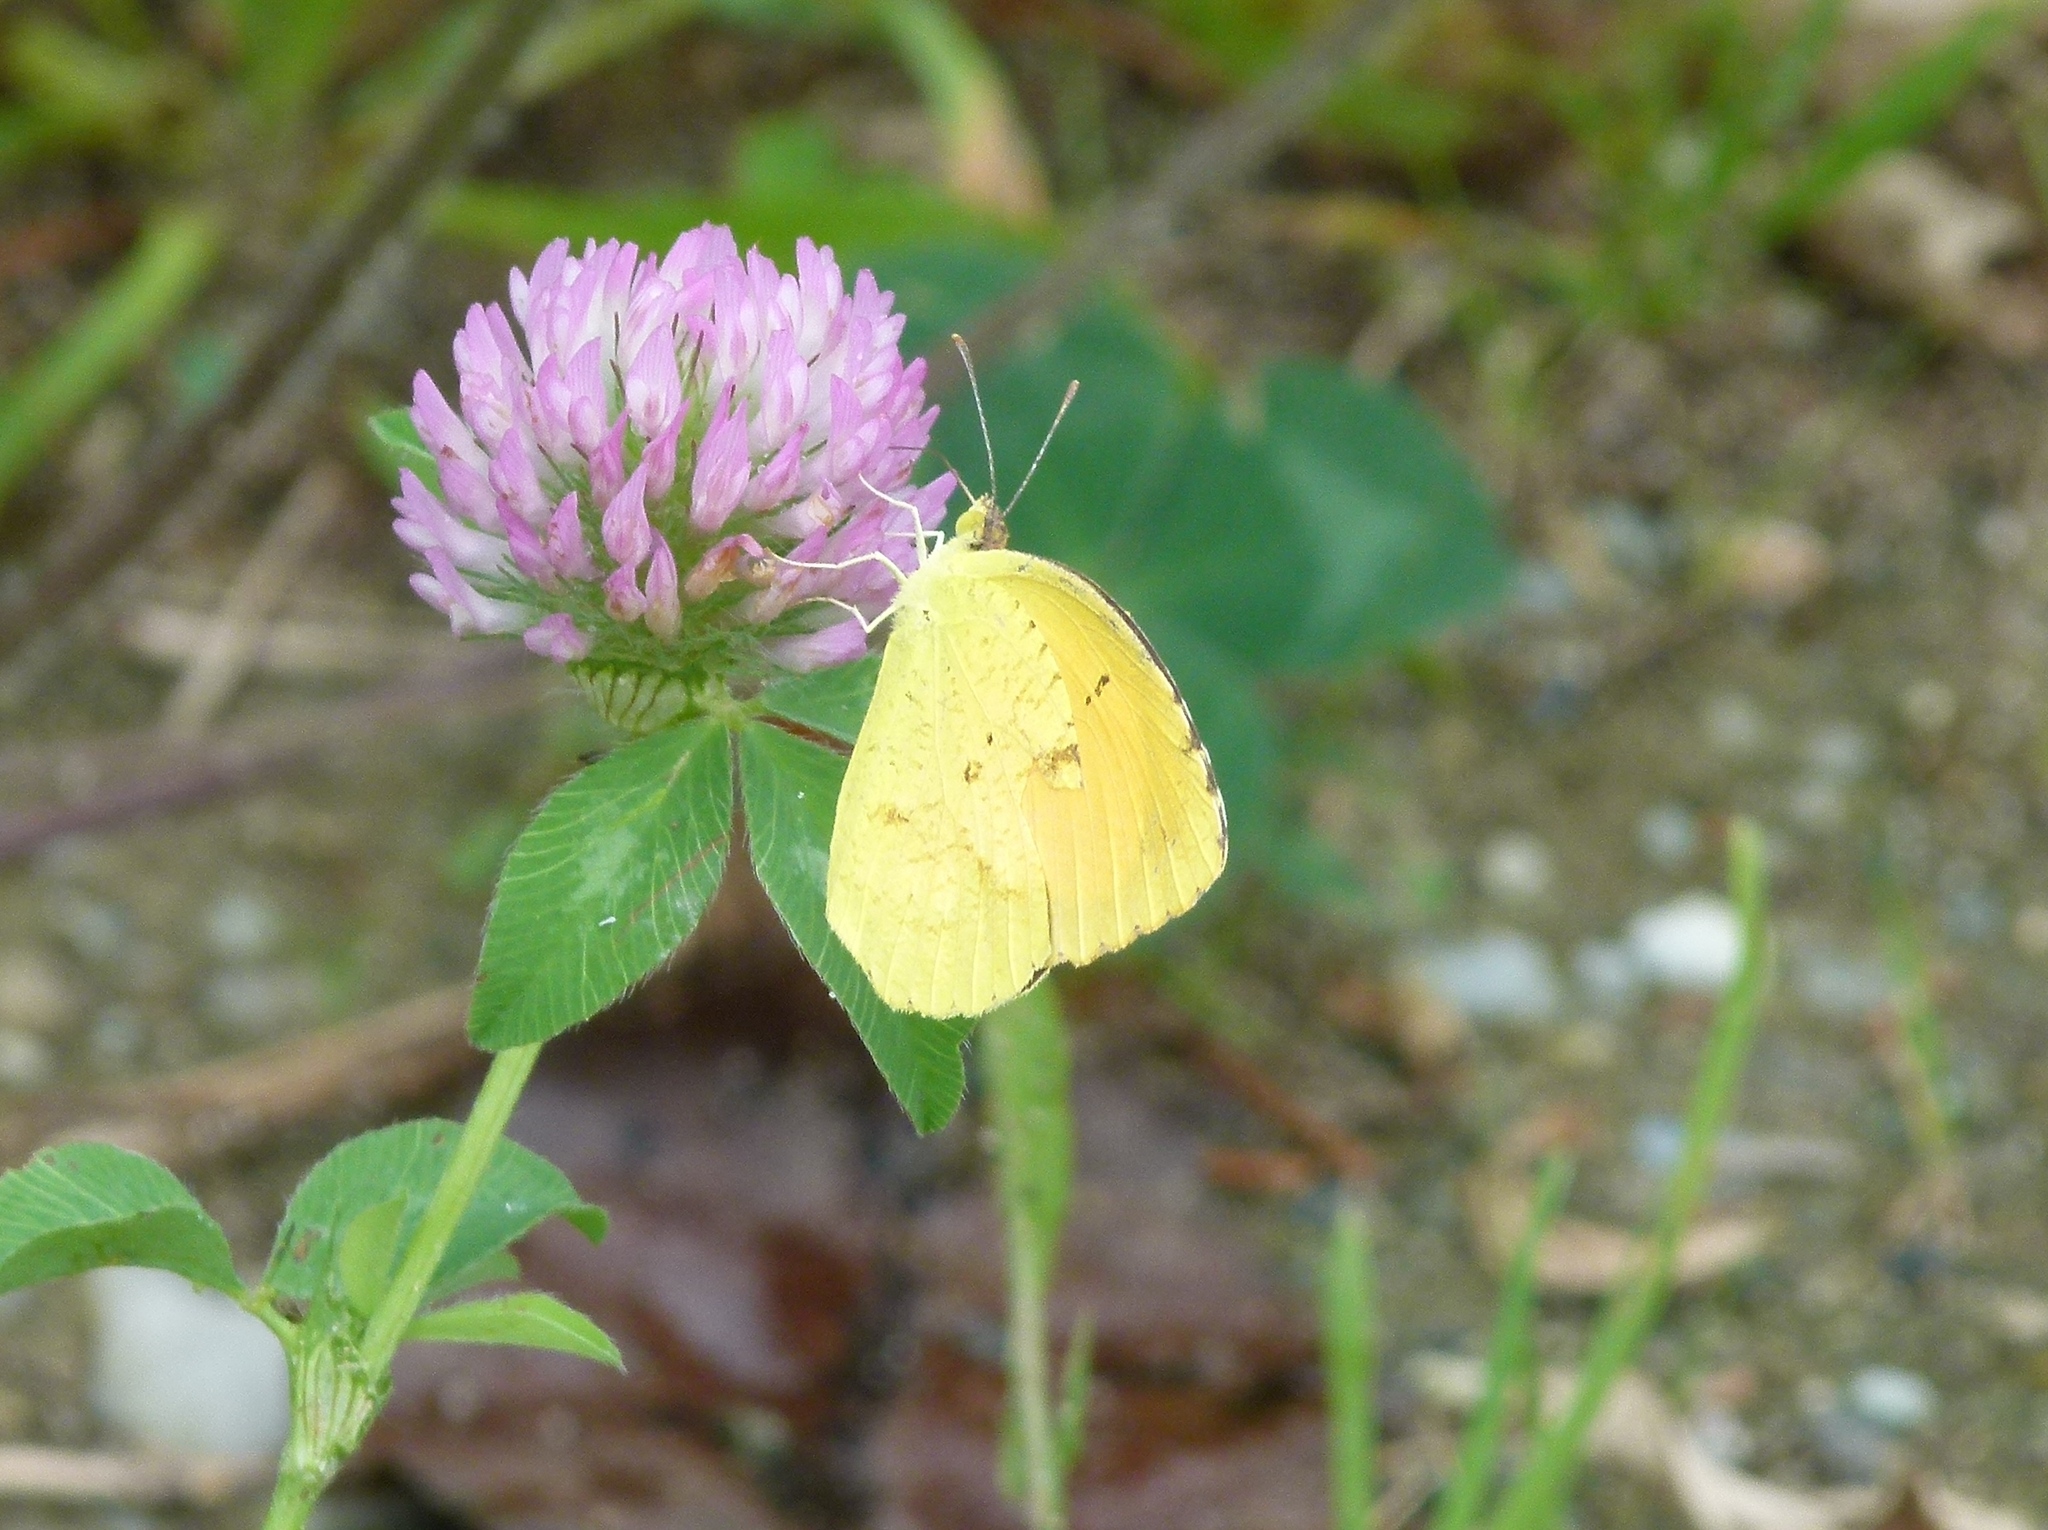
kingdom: Animalia
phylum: Arthropoda
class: Insecta
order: Lepidoptera
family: Pieridae
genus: Abaeis
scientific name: Abaeis nicippe
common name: Sleepy orange
